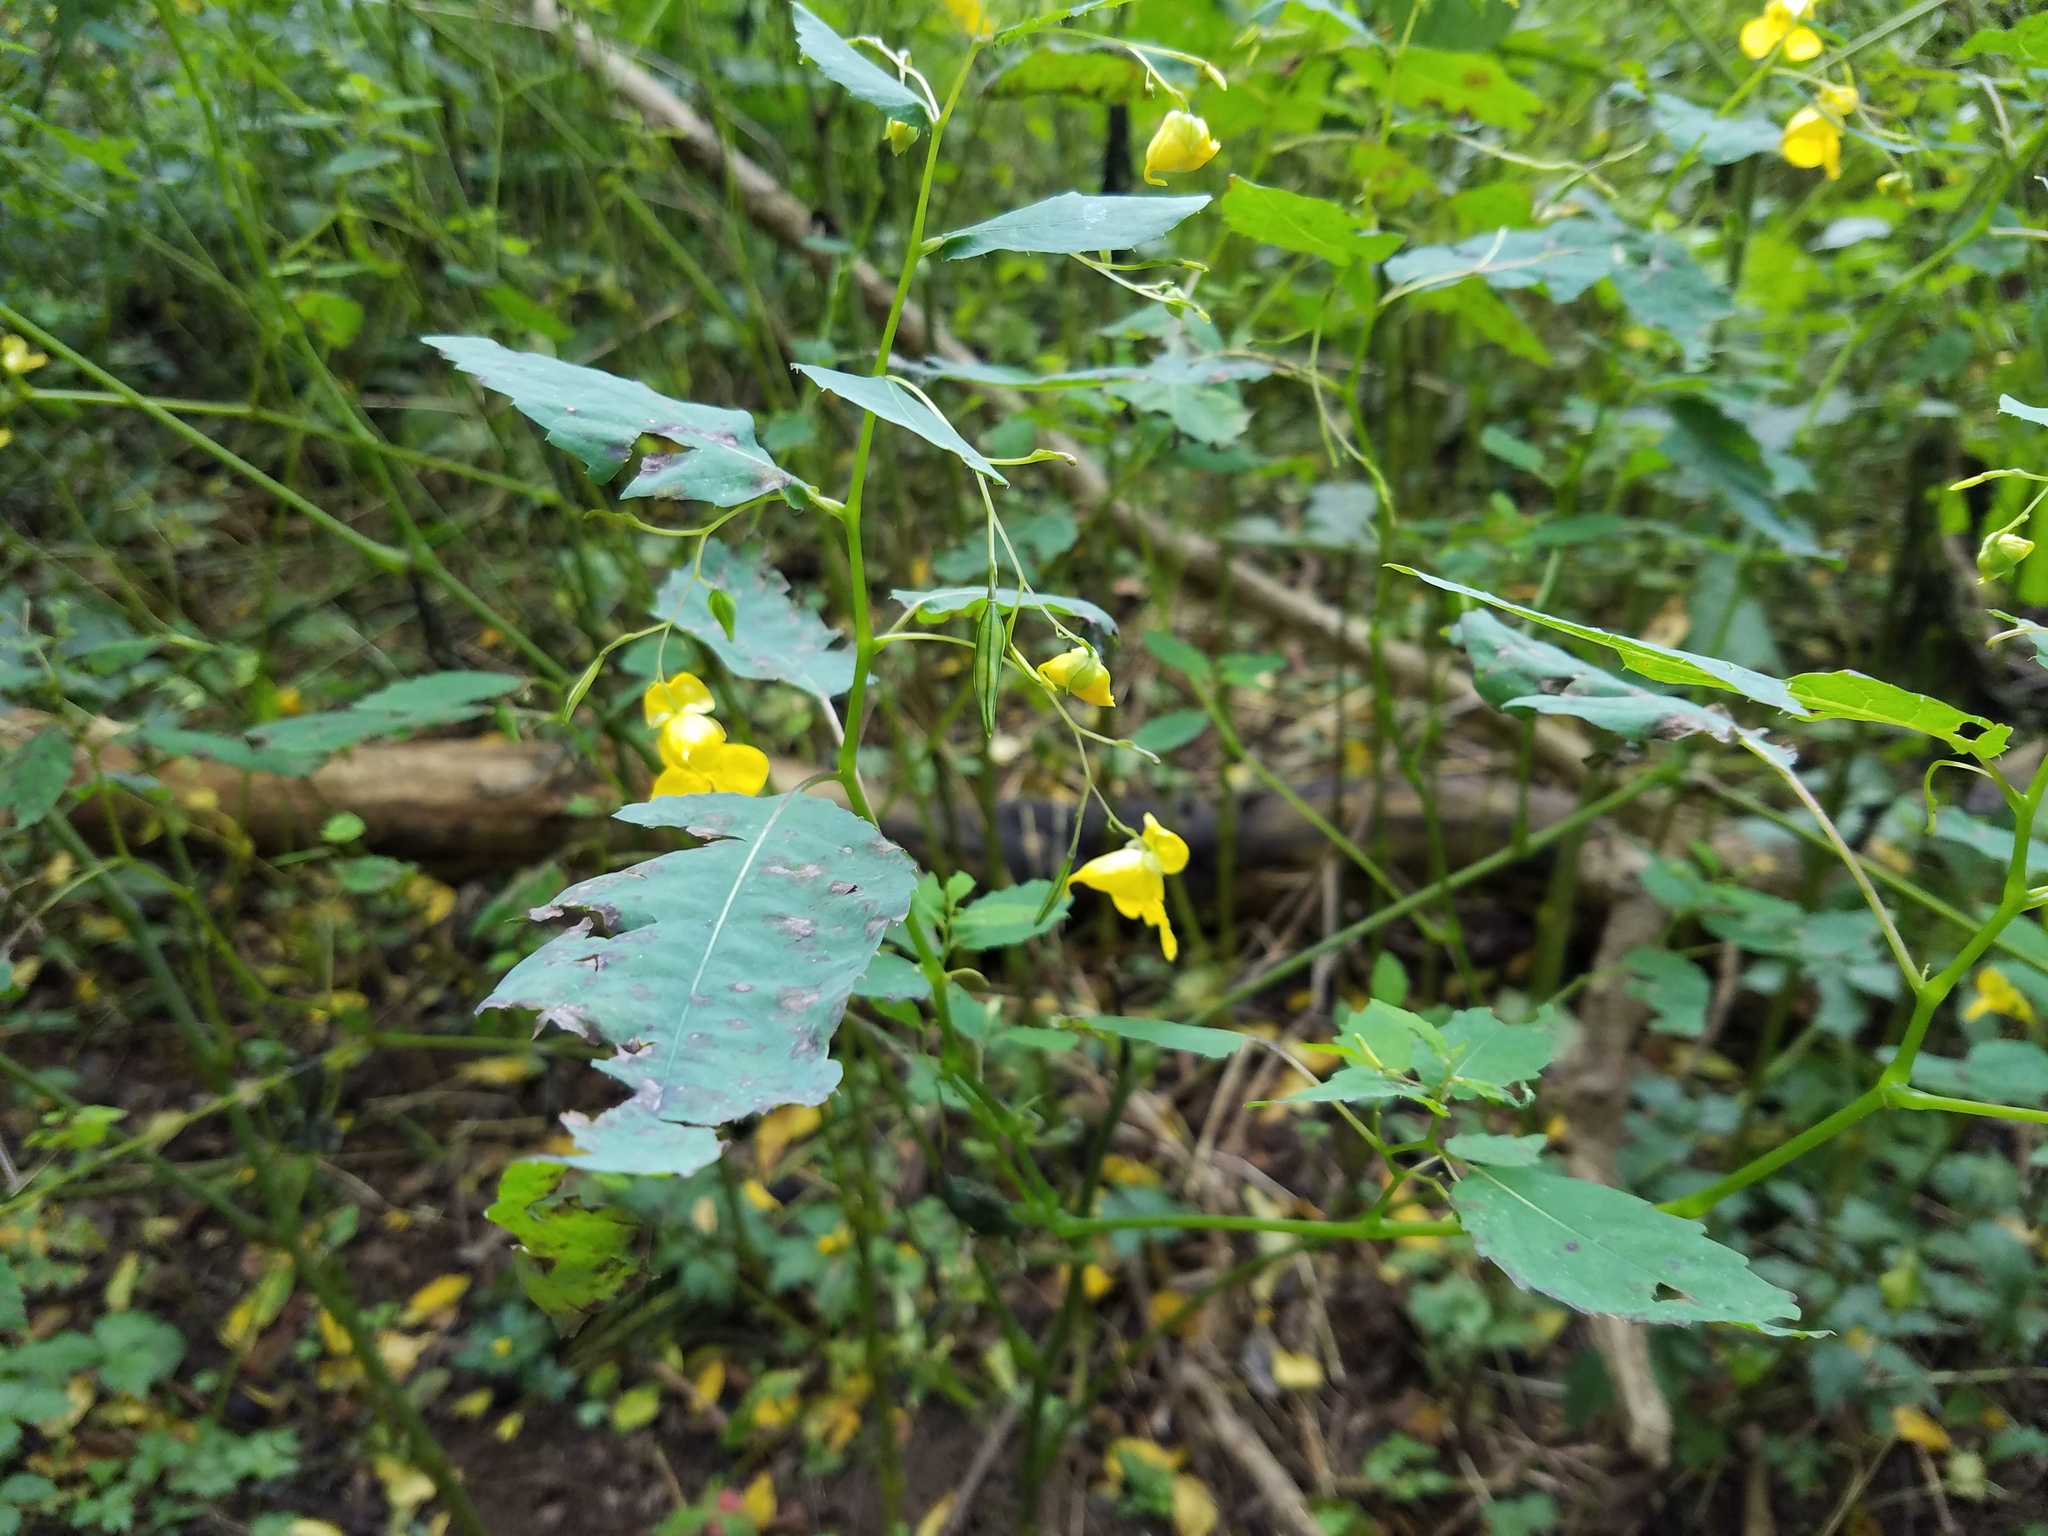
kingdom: Plantae
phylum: Tracheophyta
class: Magnoliopsida
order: Ericales
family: Balsaminaceae
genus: Impatiens
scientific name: Impatiens pallida
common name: Pale snapweed
